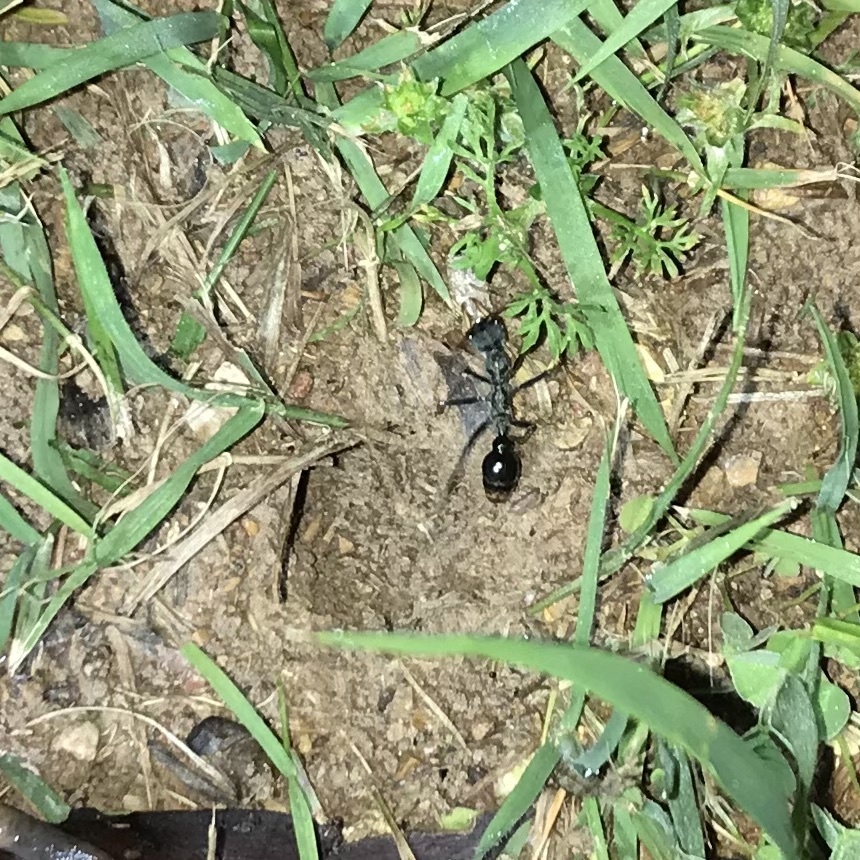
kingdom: Animalia
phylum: Arthropoda
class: Insecta
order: Hymenoptera
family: Formicidae
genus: Myrmecia
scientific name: Myrmecia tarsata
